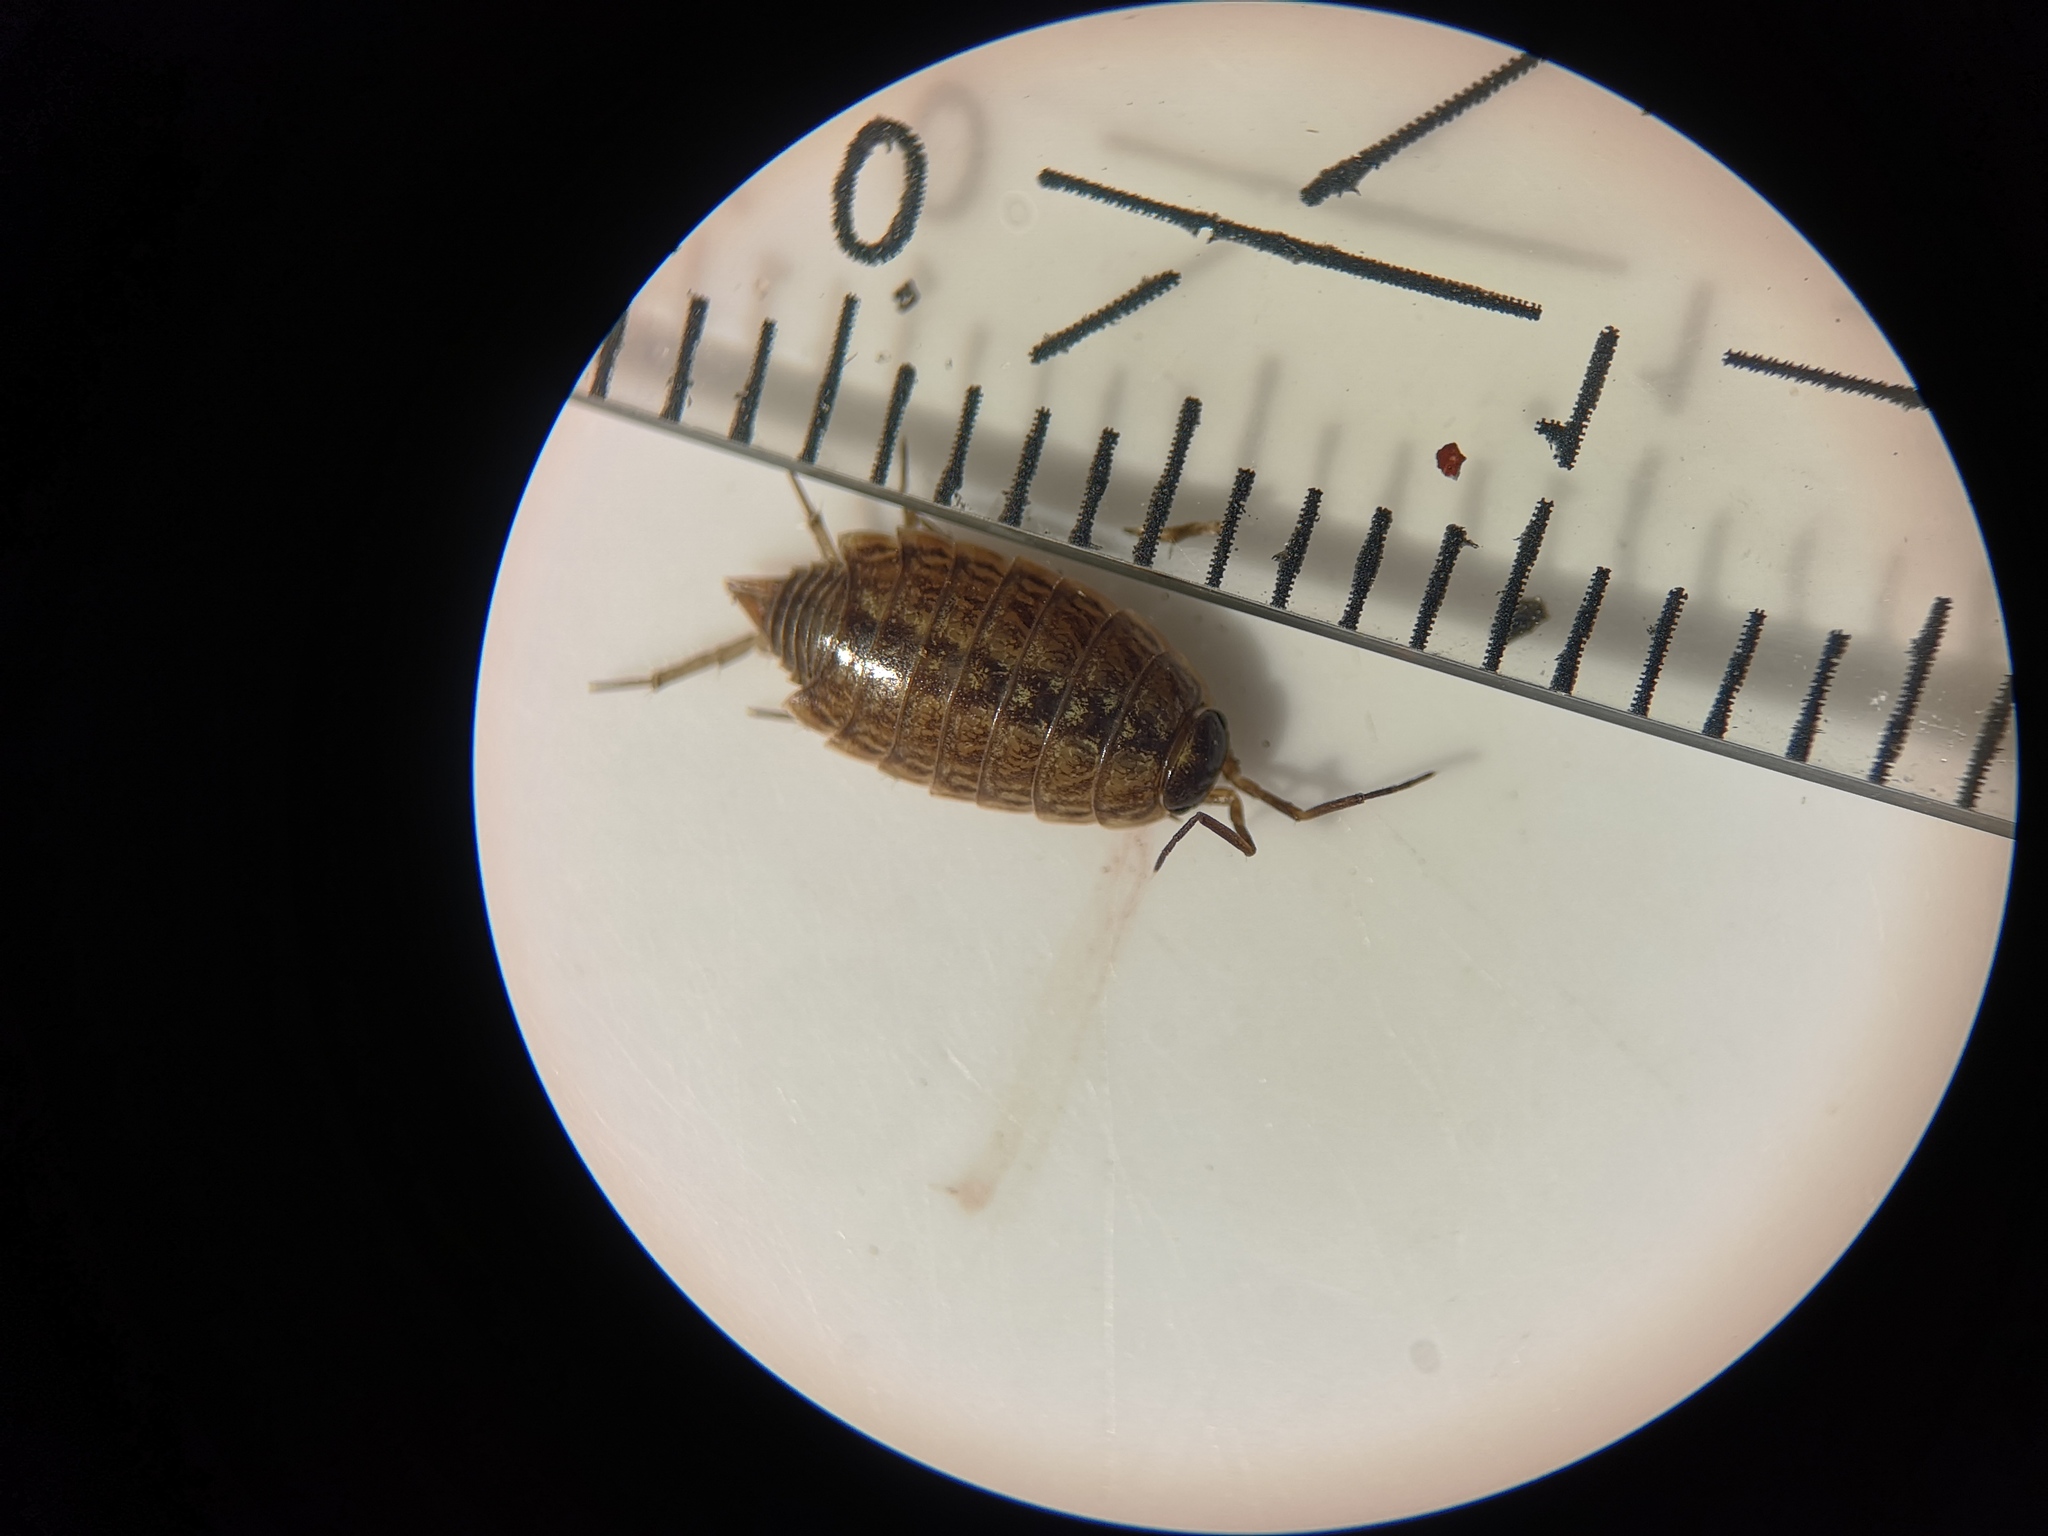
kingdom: Animalia
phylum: Arthropoda
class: Malacostraca
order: Isopoda
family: Philosciidae
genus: Philoscia
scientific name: Philoscia muscorum
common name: Common striped woodlouse
